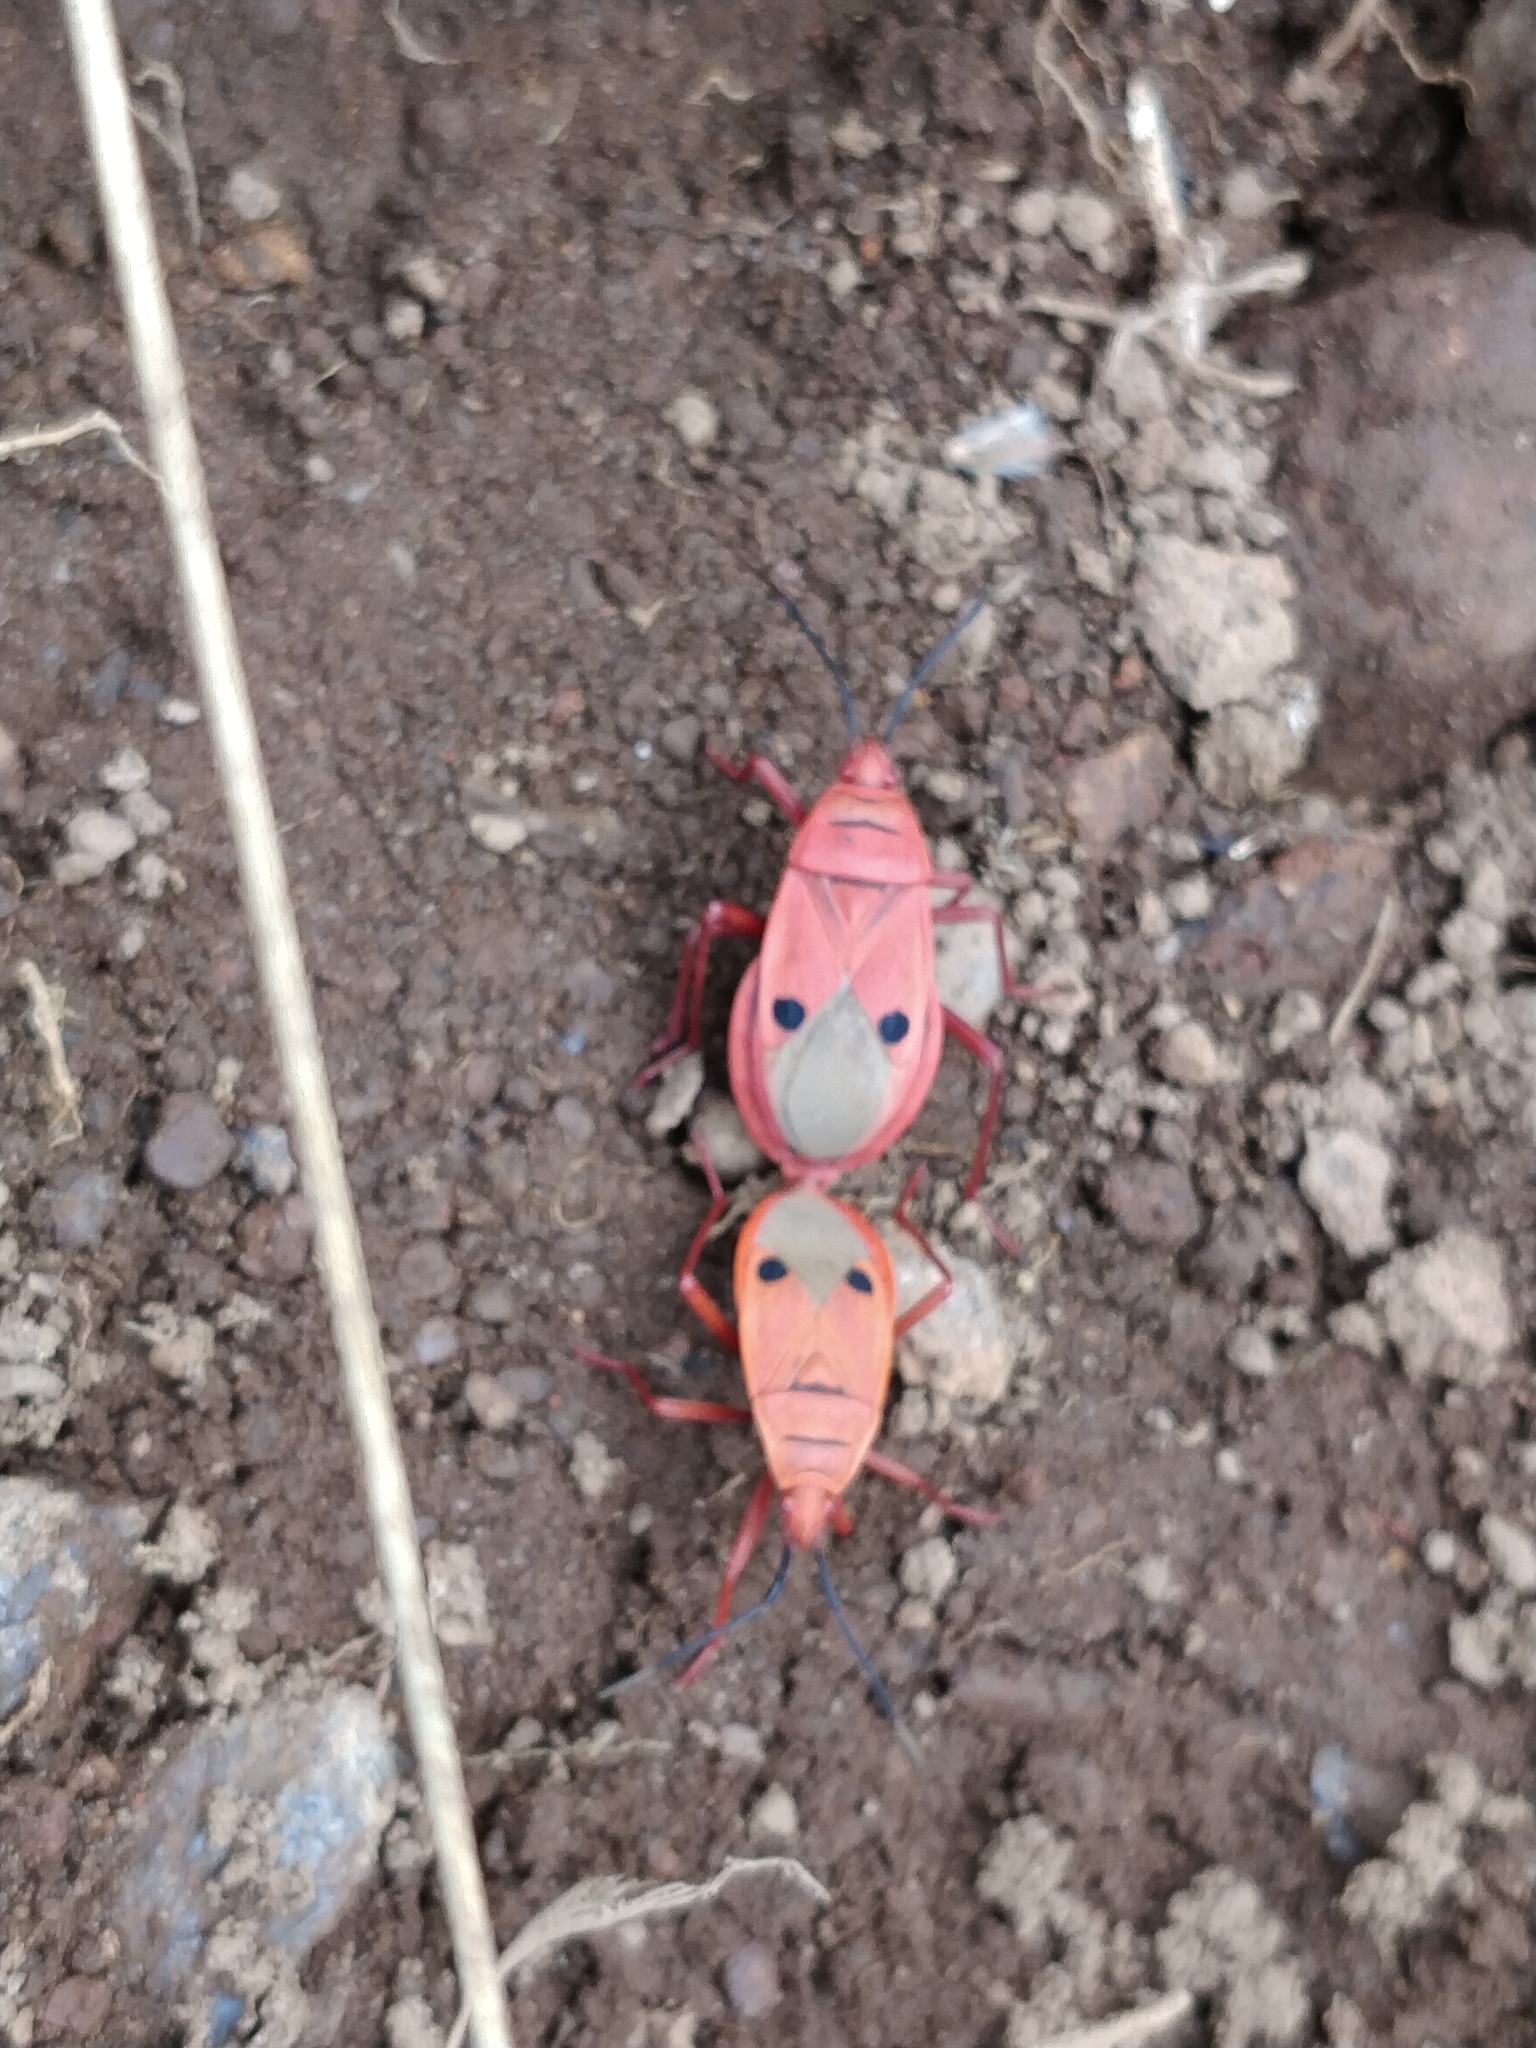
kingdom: Animalia
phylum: Arthropoda
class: Insecta
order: Hemiptera
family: Pyrrhocoridae
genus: Probergrothius
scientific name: Probergrothius nigricornis
